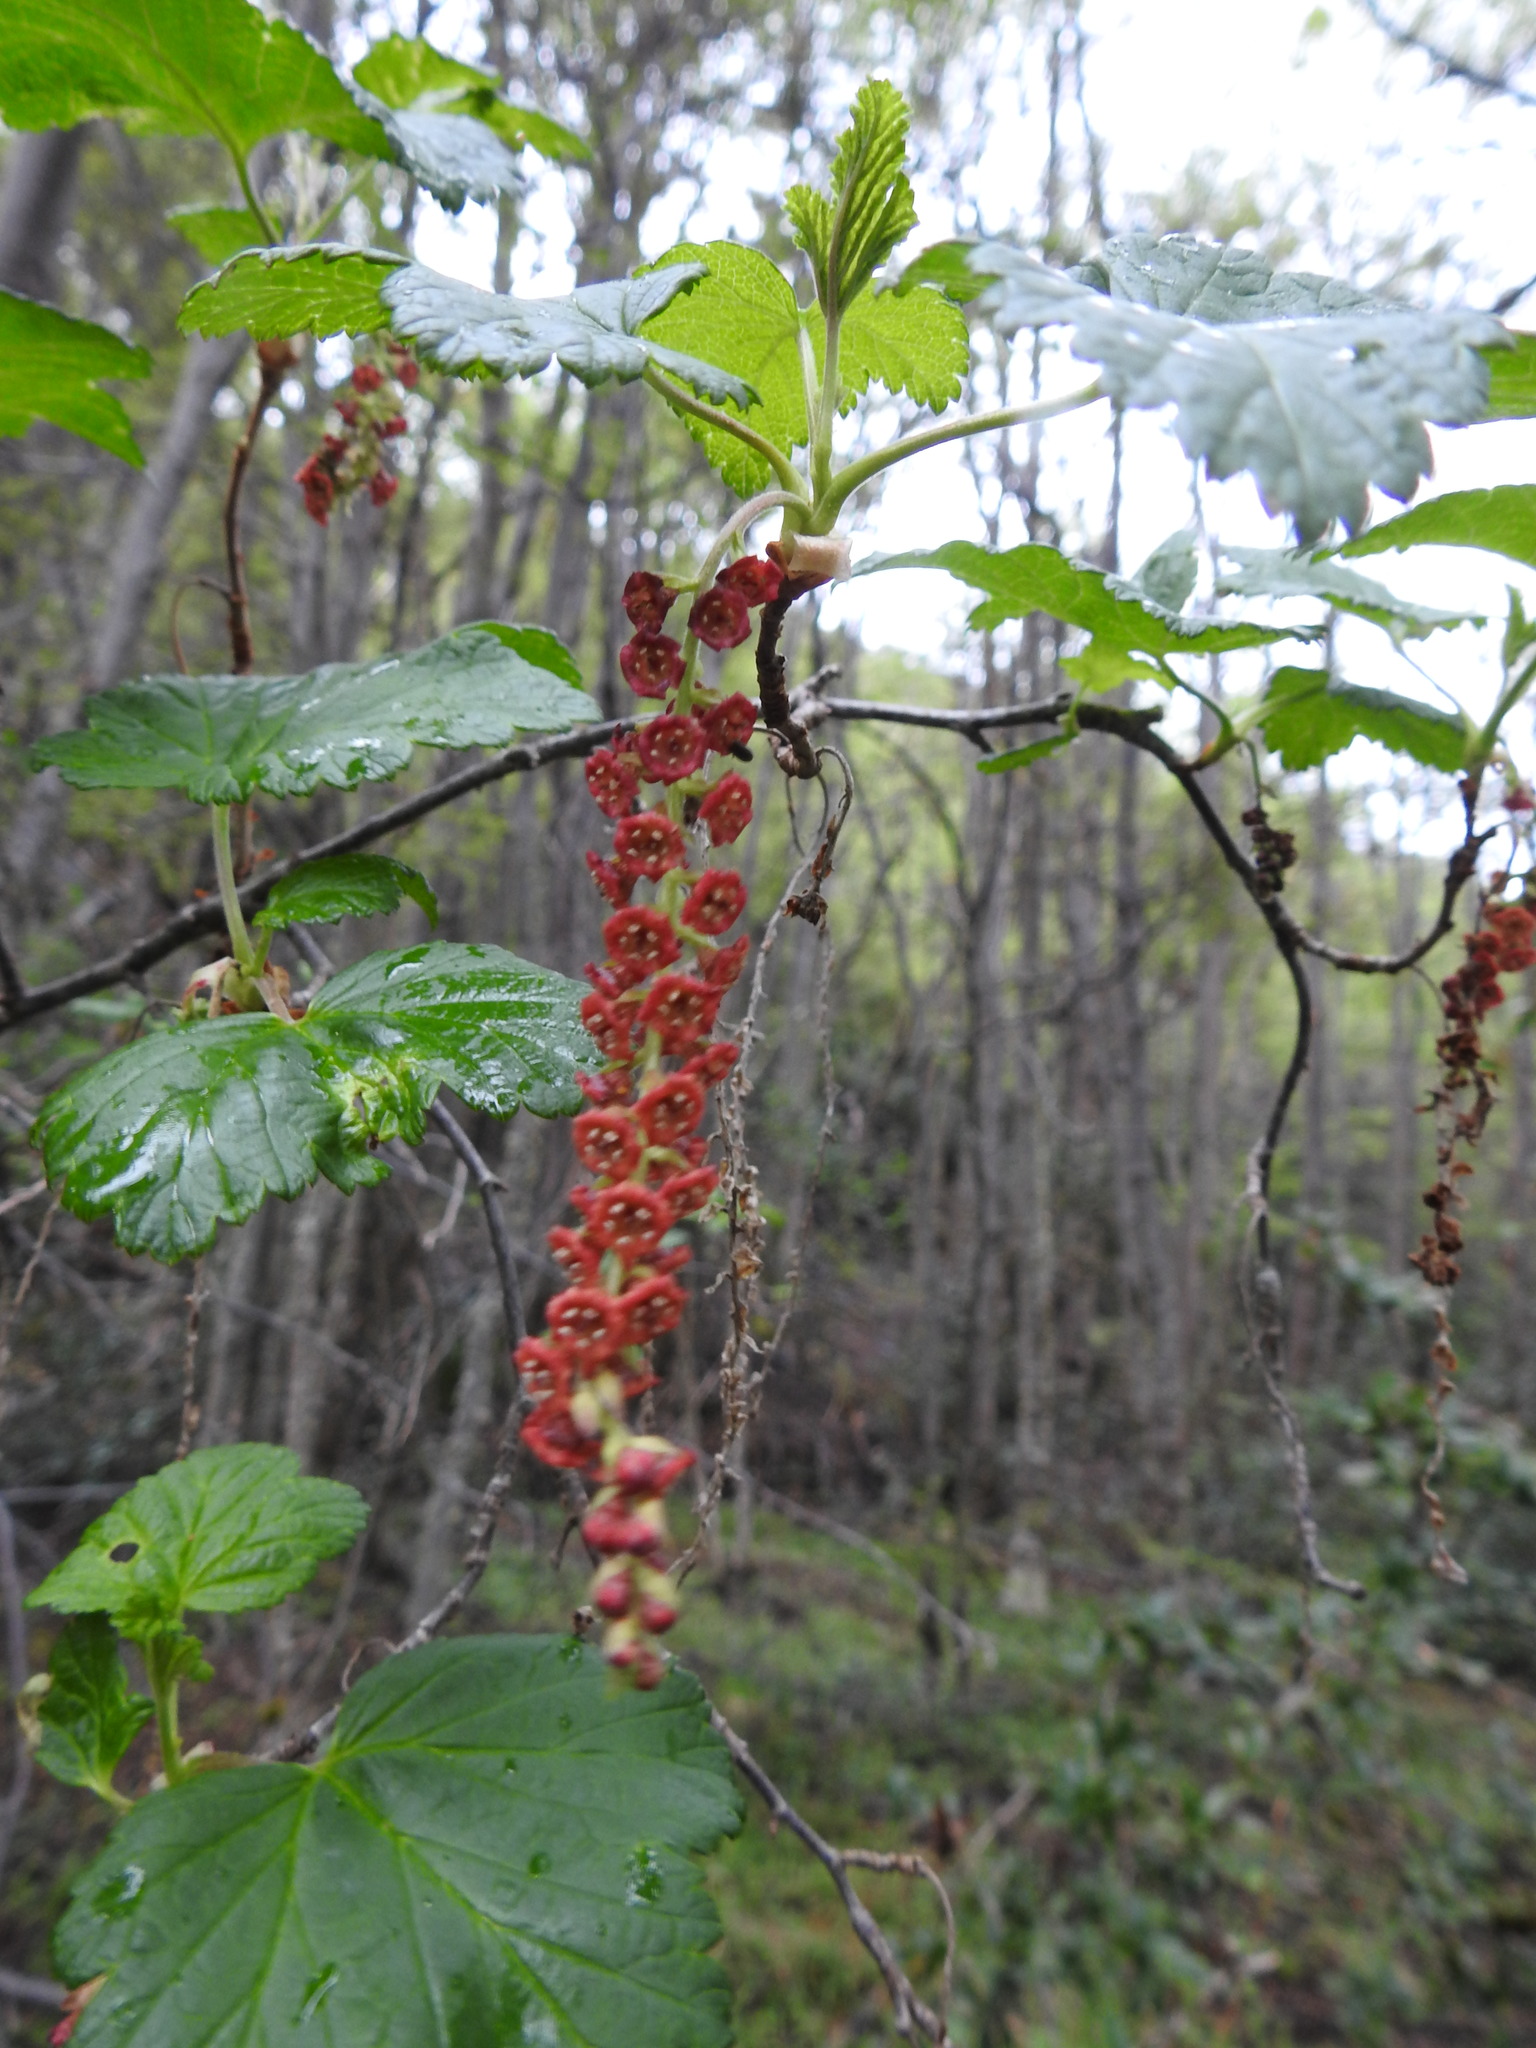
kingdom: Plantae
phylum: Tracheophyta
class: Magnoliopsida
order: Saxifragales
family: Grossulariaceae
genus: Ribes
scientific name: Ribes magellanicum
